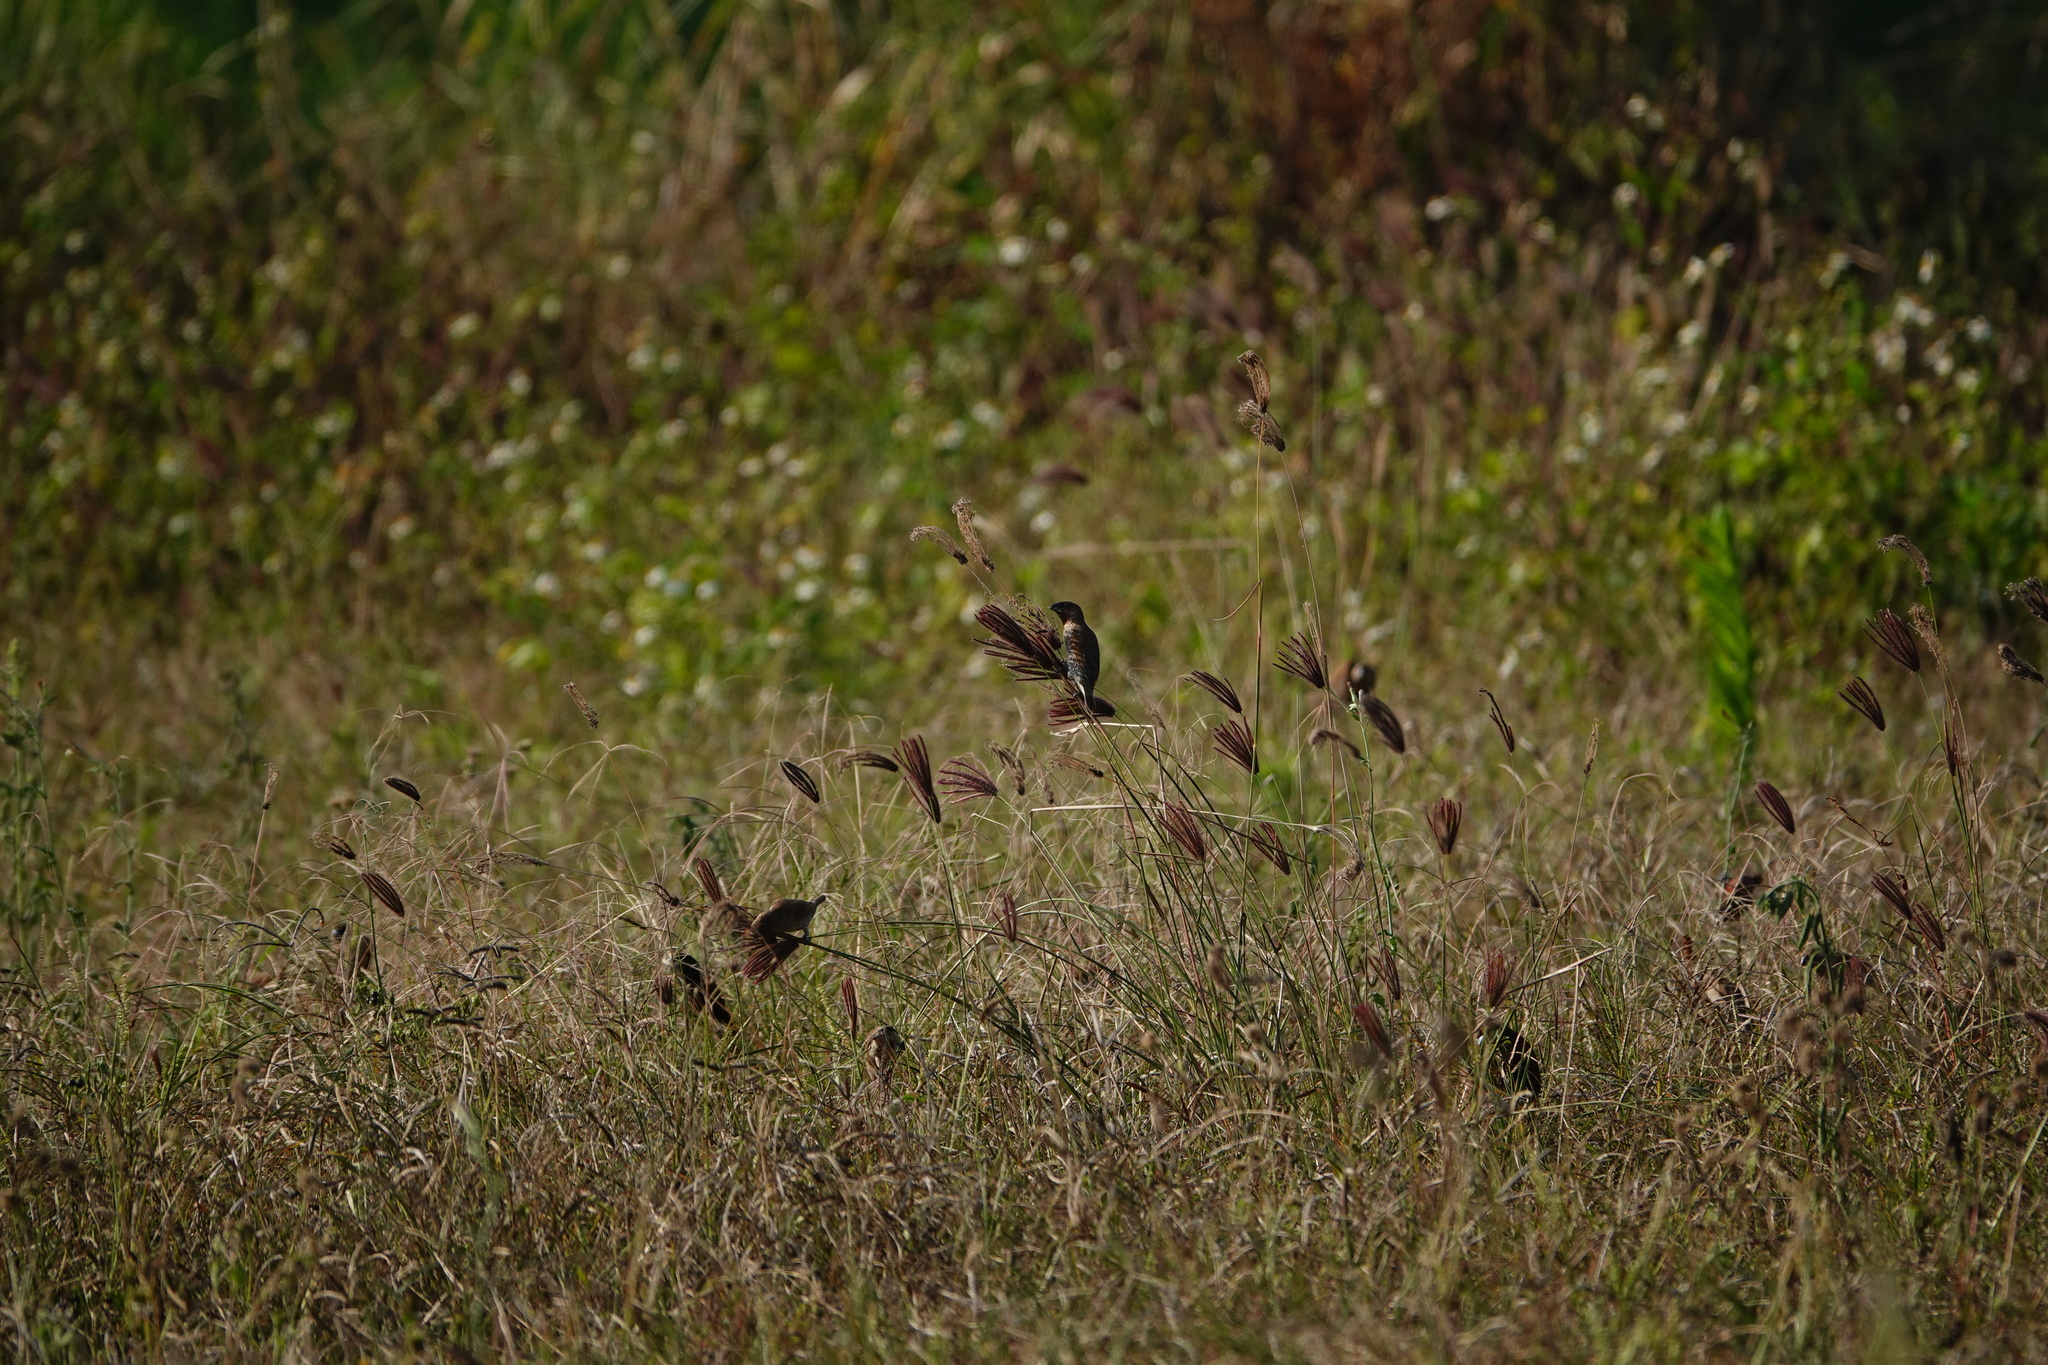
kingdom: Animalia
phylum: Chordata
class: Aves
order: Passeriformes
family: Estrildidae
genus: Lonchura
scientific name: Lonchura punctulata
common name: Scaly-breasted munia
